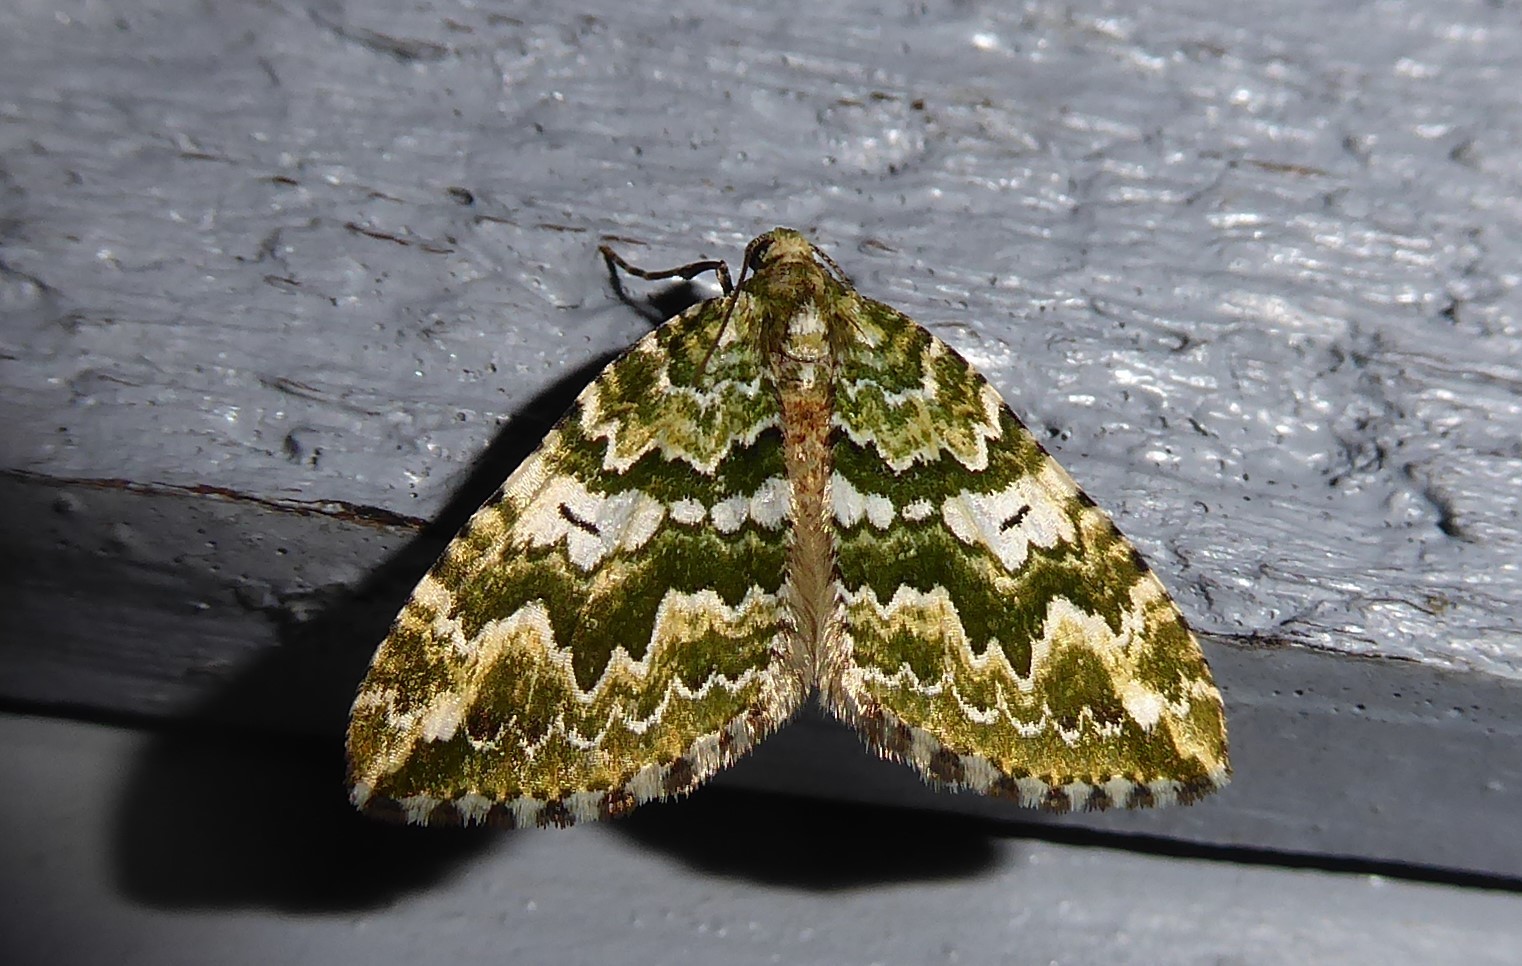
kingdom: Animalia
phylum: Arthropoda
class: Insecta
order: Lepidoptera
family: Geometridae
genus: Asaphodes
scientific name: Asaphodes beata
